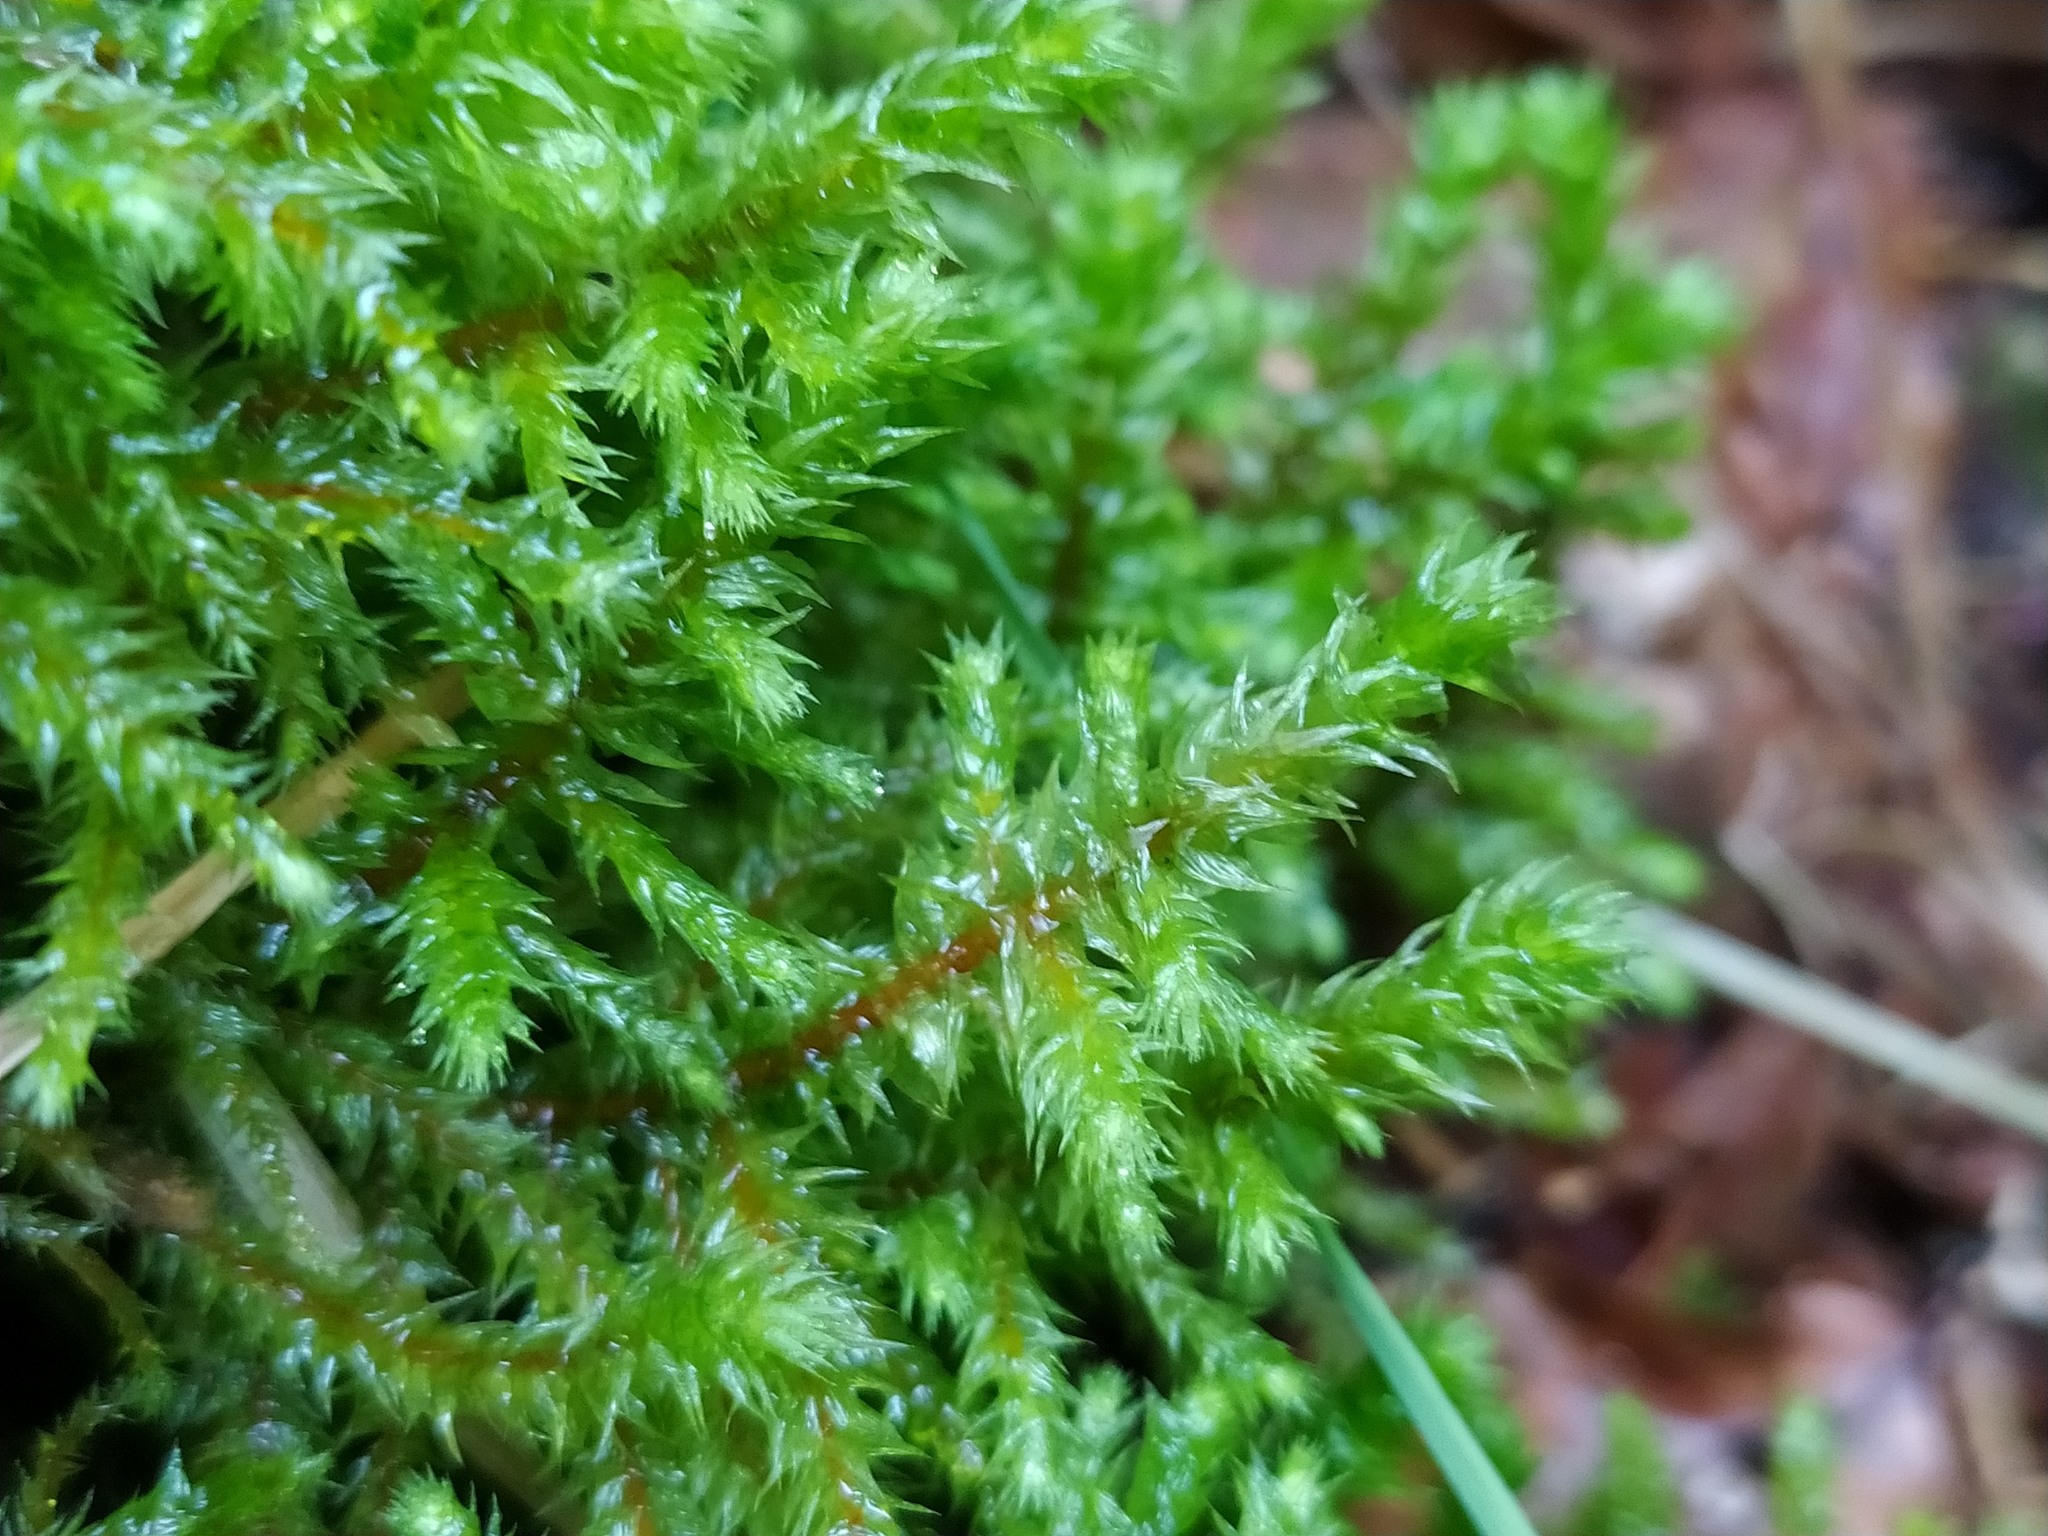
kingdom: Plantae
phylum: Bryophyta
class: Bryopsida
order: Hypnales
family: Hylocomiaceae
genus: Hylocomiadelphus
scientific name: Hylocomiadelphus triquetrus
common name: Rough goose neck moss
